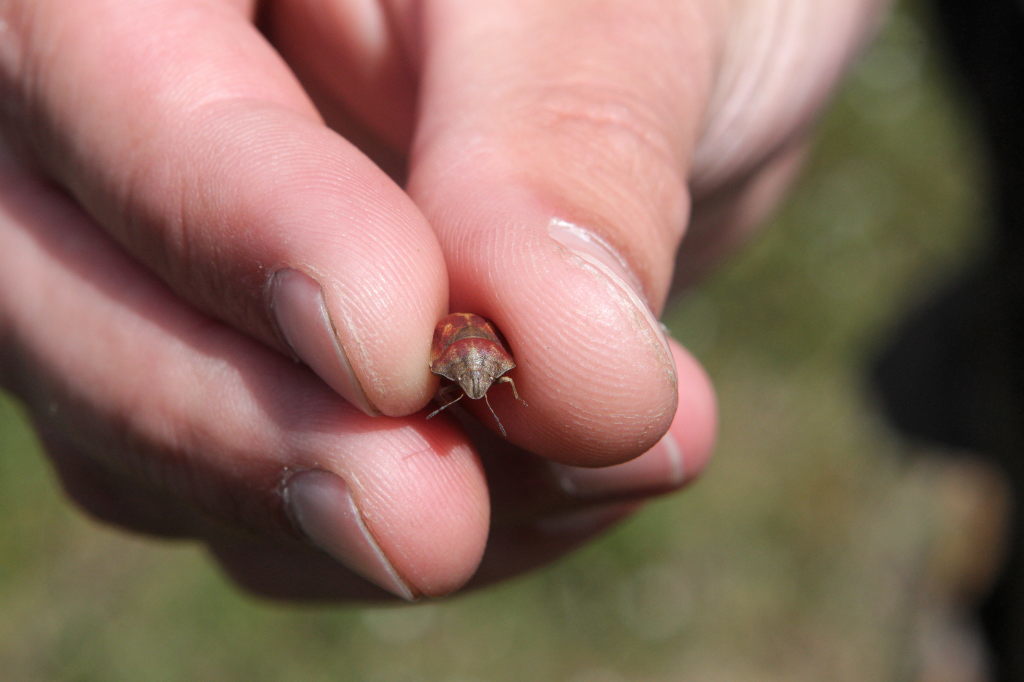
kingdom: Animalia
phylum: Arthropoda
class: Insecta
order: Hemiptera
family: Scutelleridae
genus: Eurygaster
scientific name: Eurygaster maura
